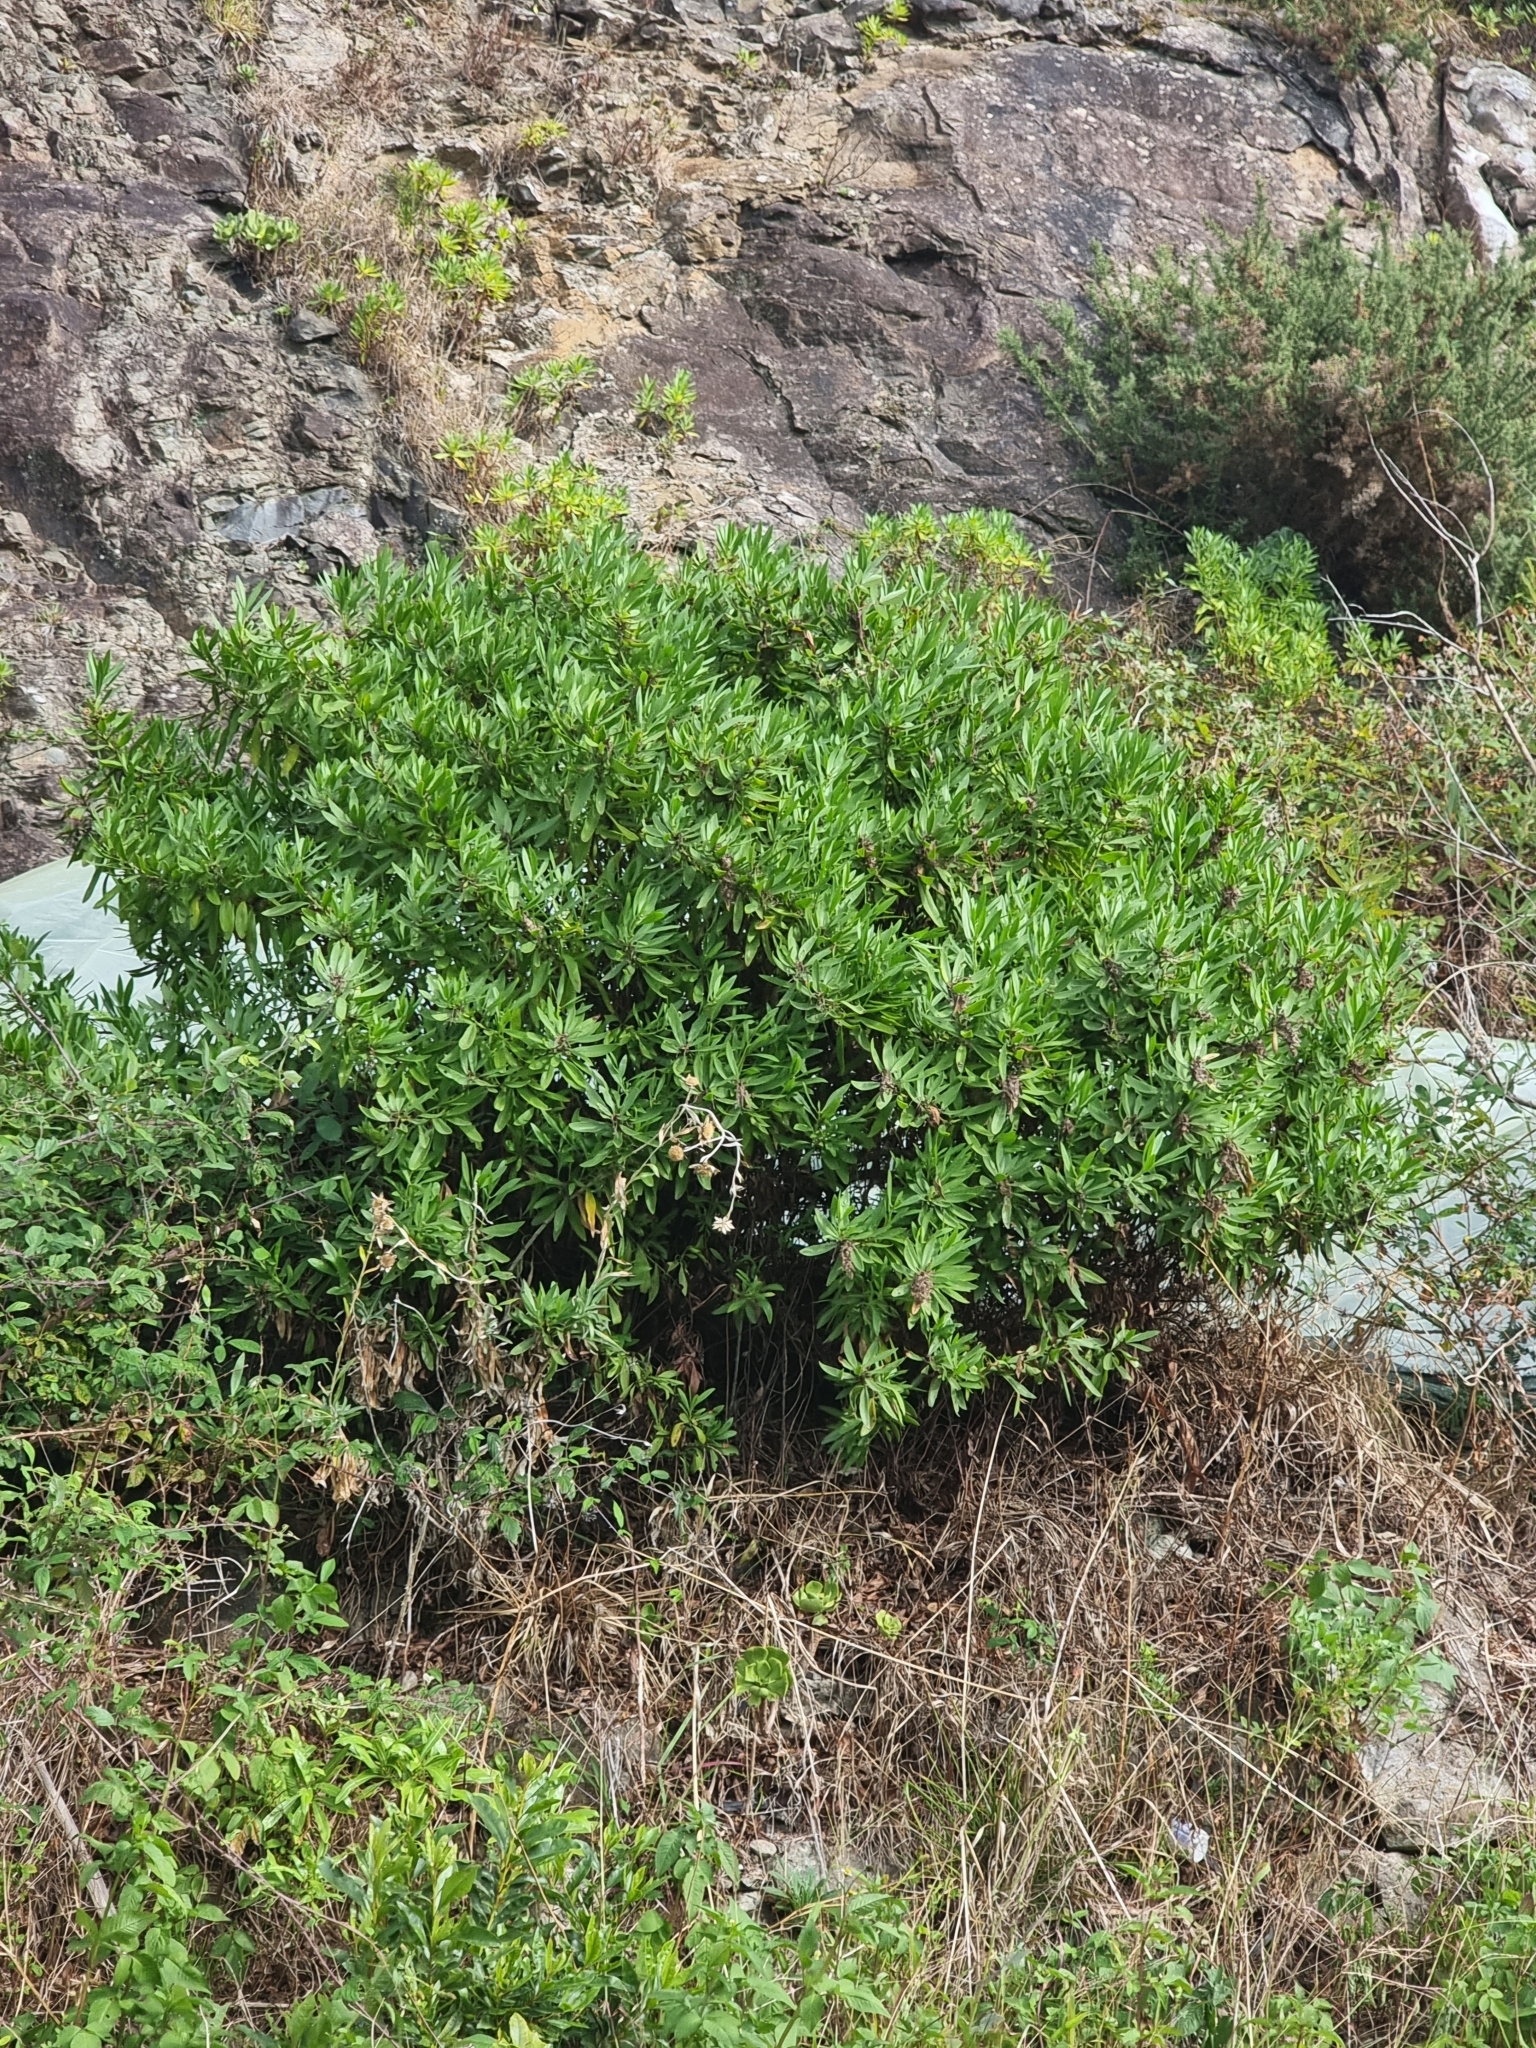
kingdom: Plantae
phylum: Tracheophyta
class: Magnoliopsida
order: Lamiales
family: Plantaginaceae
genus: Globularia
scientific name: Globularia salicina
